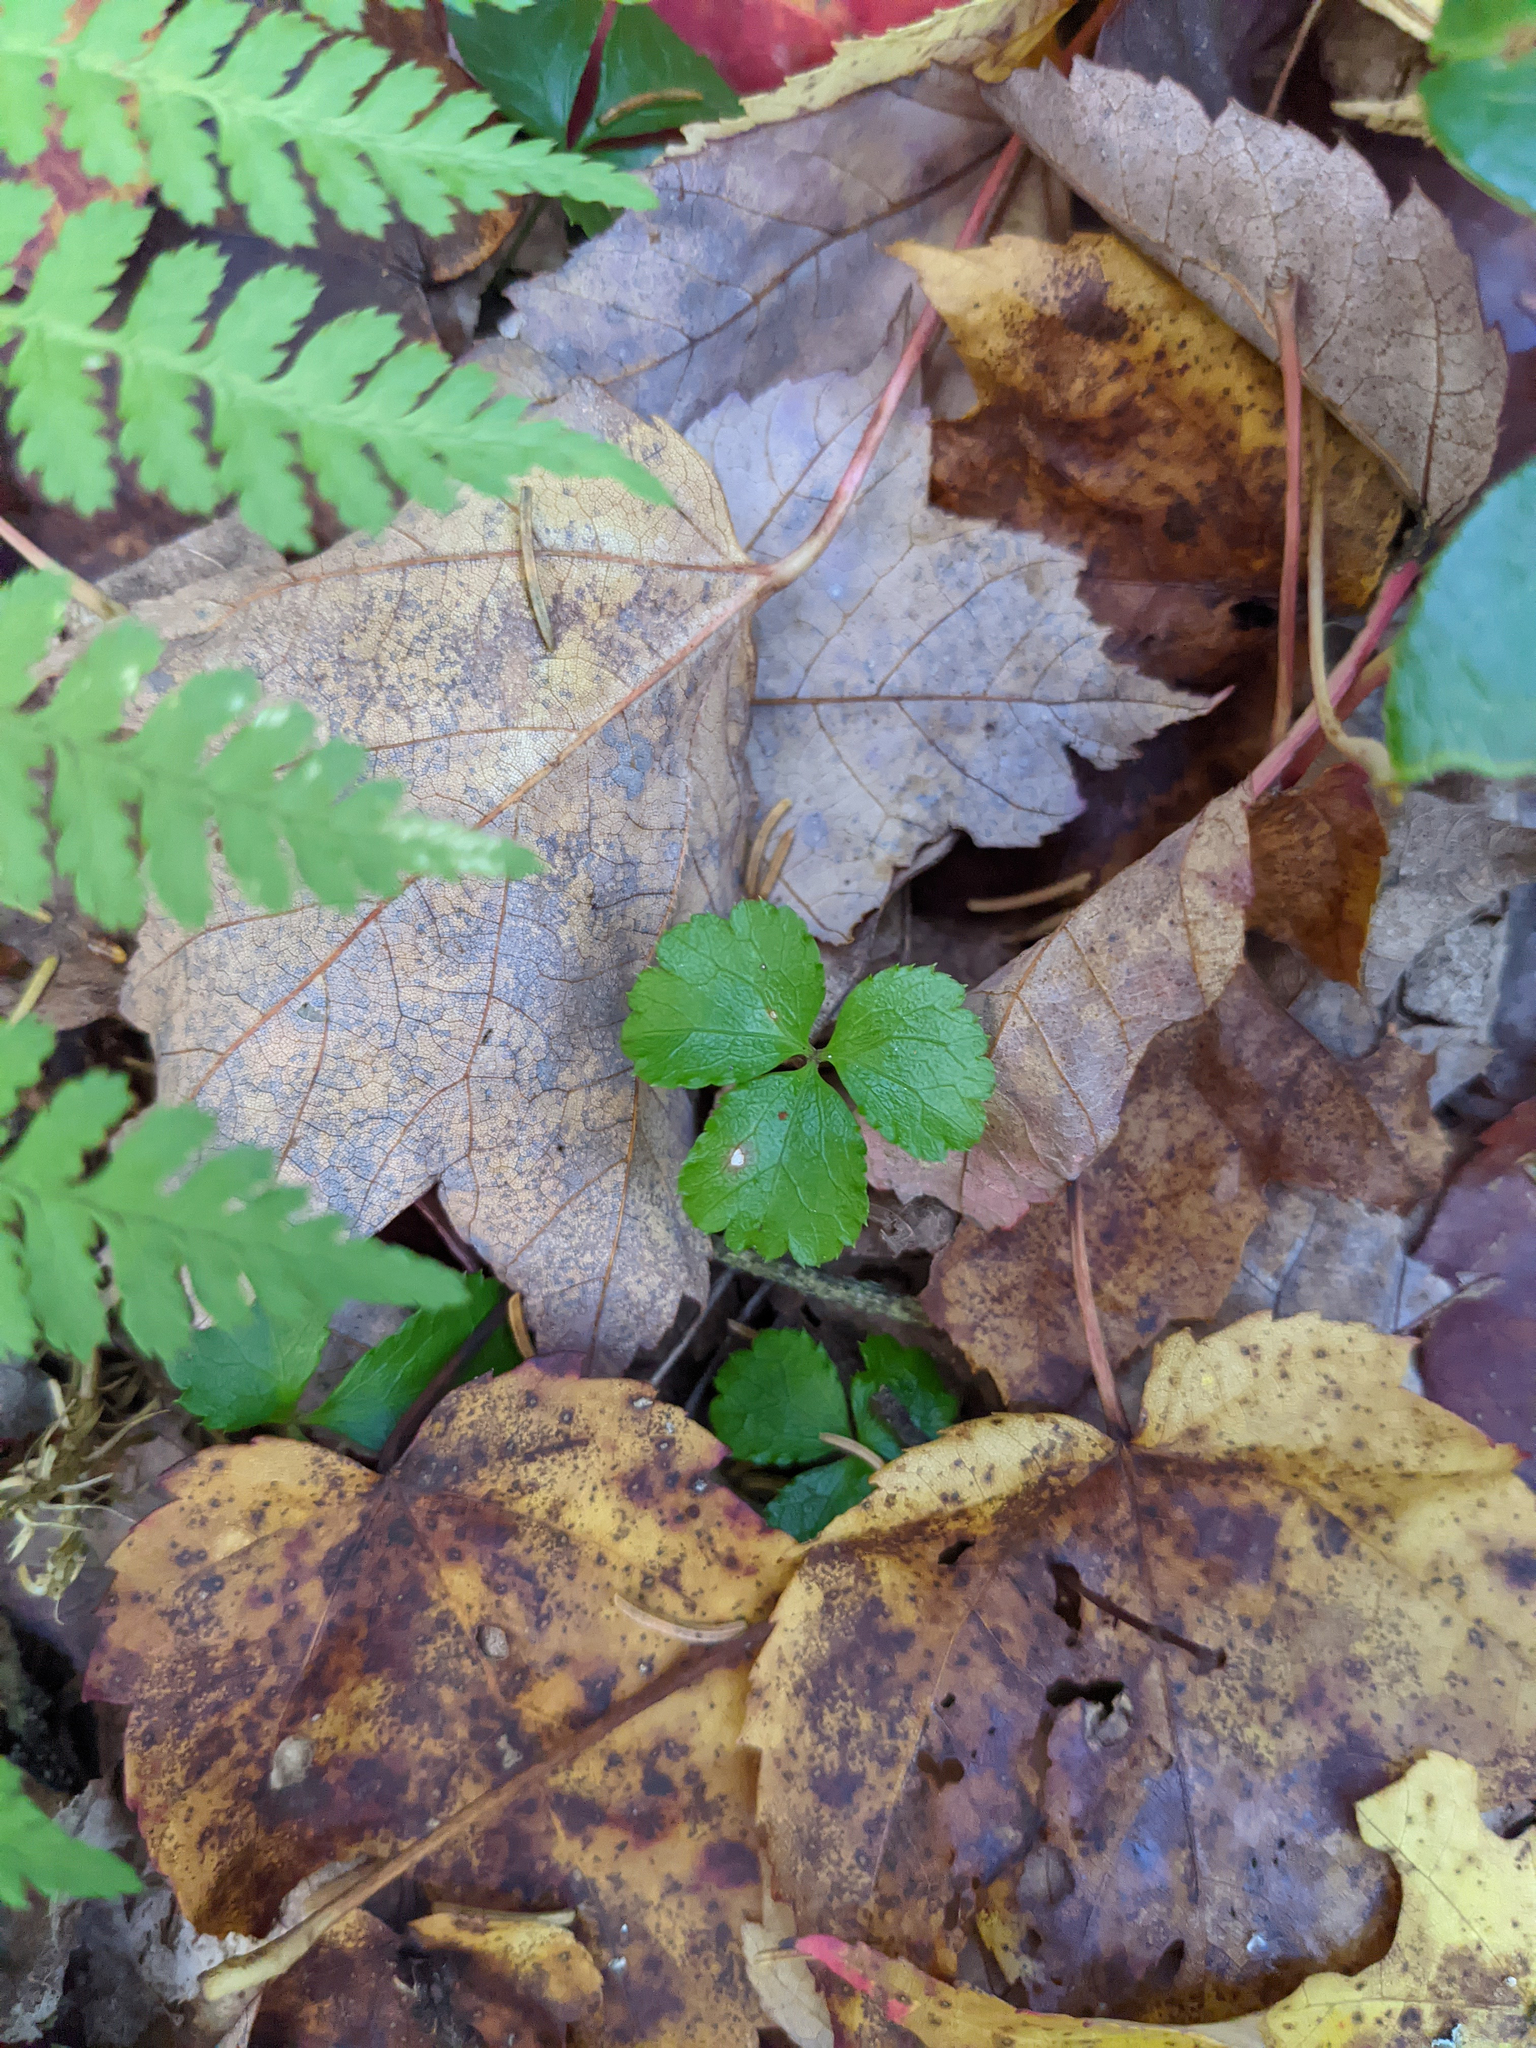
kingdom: Plantae
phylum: Tracheophyta
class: Magnoliopsida
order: Ranunculales
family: Ranunculaceae
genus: Coptis
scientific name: Coptis trifolia
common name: Canker-root
